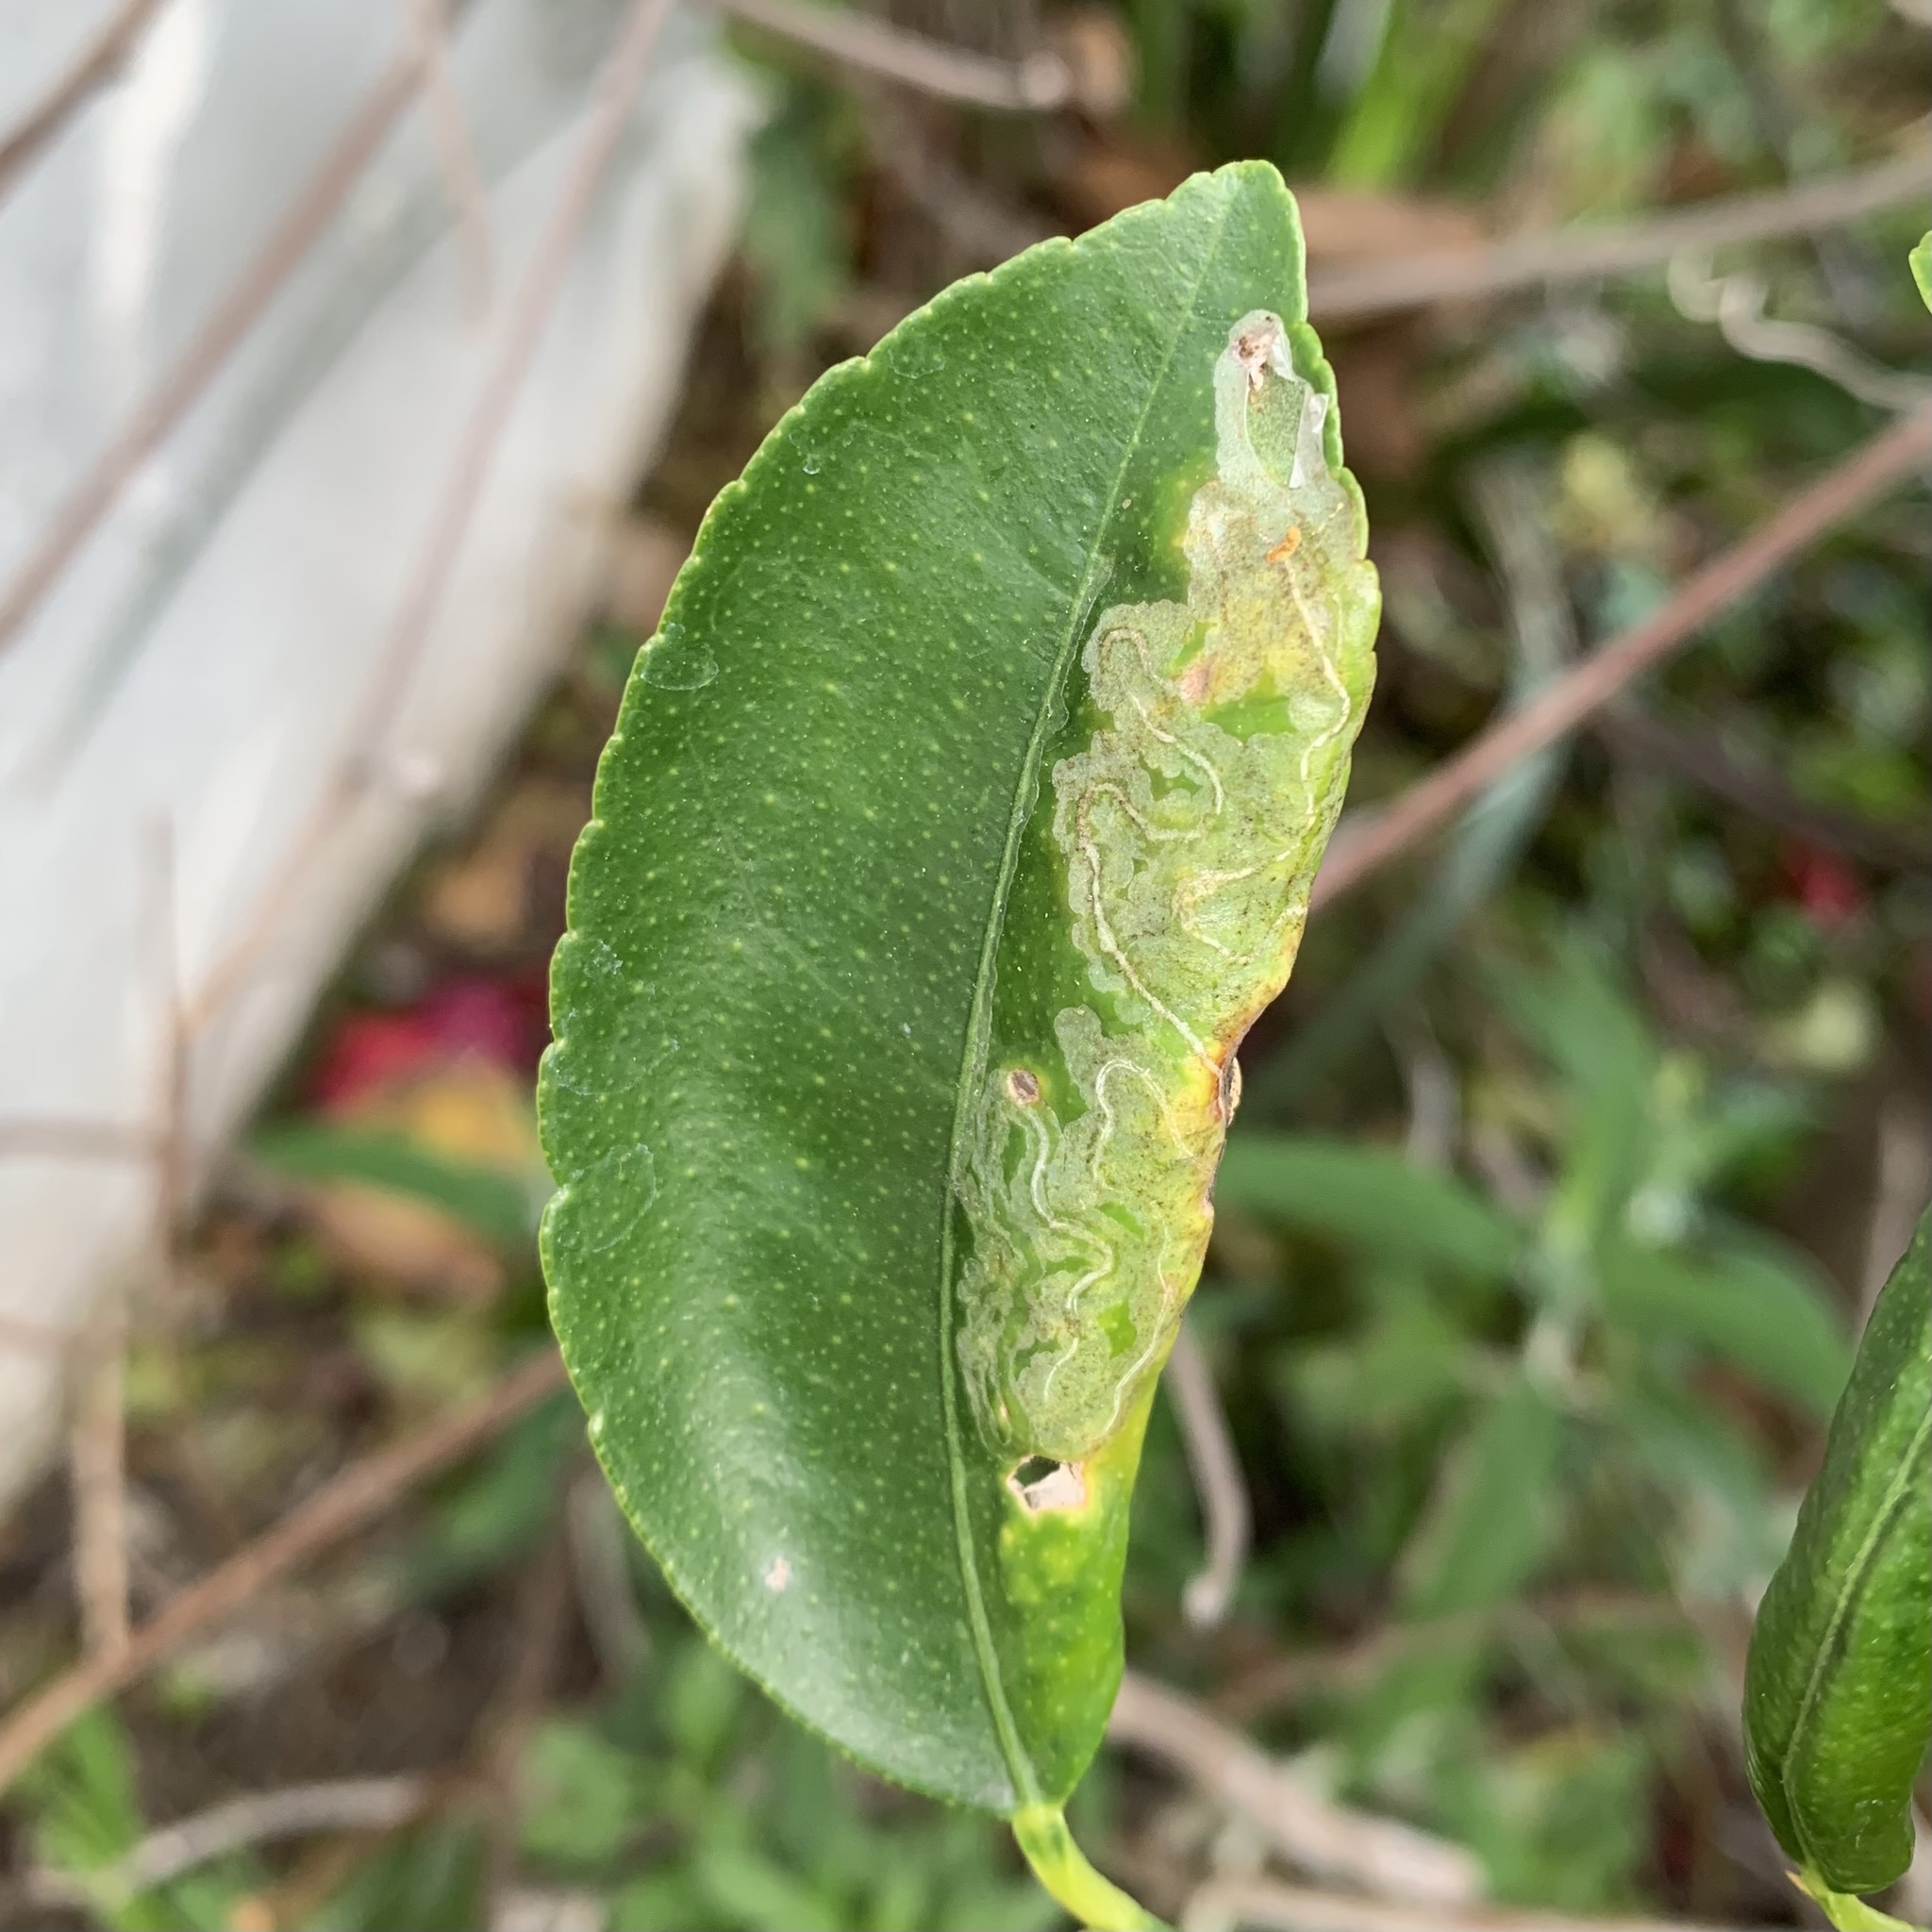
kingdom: Animalia
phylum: Arthropoda
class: Insecta
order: Lepidoptera
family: Gracillariidae
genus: Phyllocnistis
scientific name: Phyllocnistis citrella
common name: Citrus leafminer
